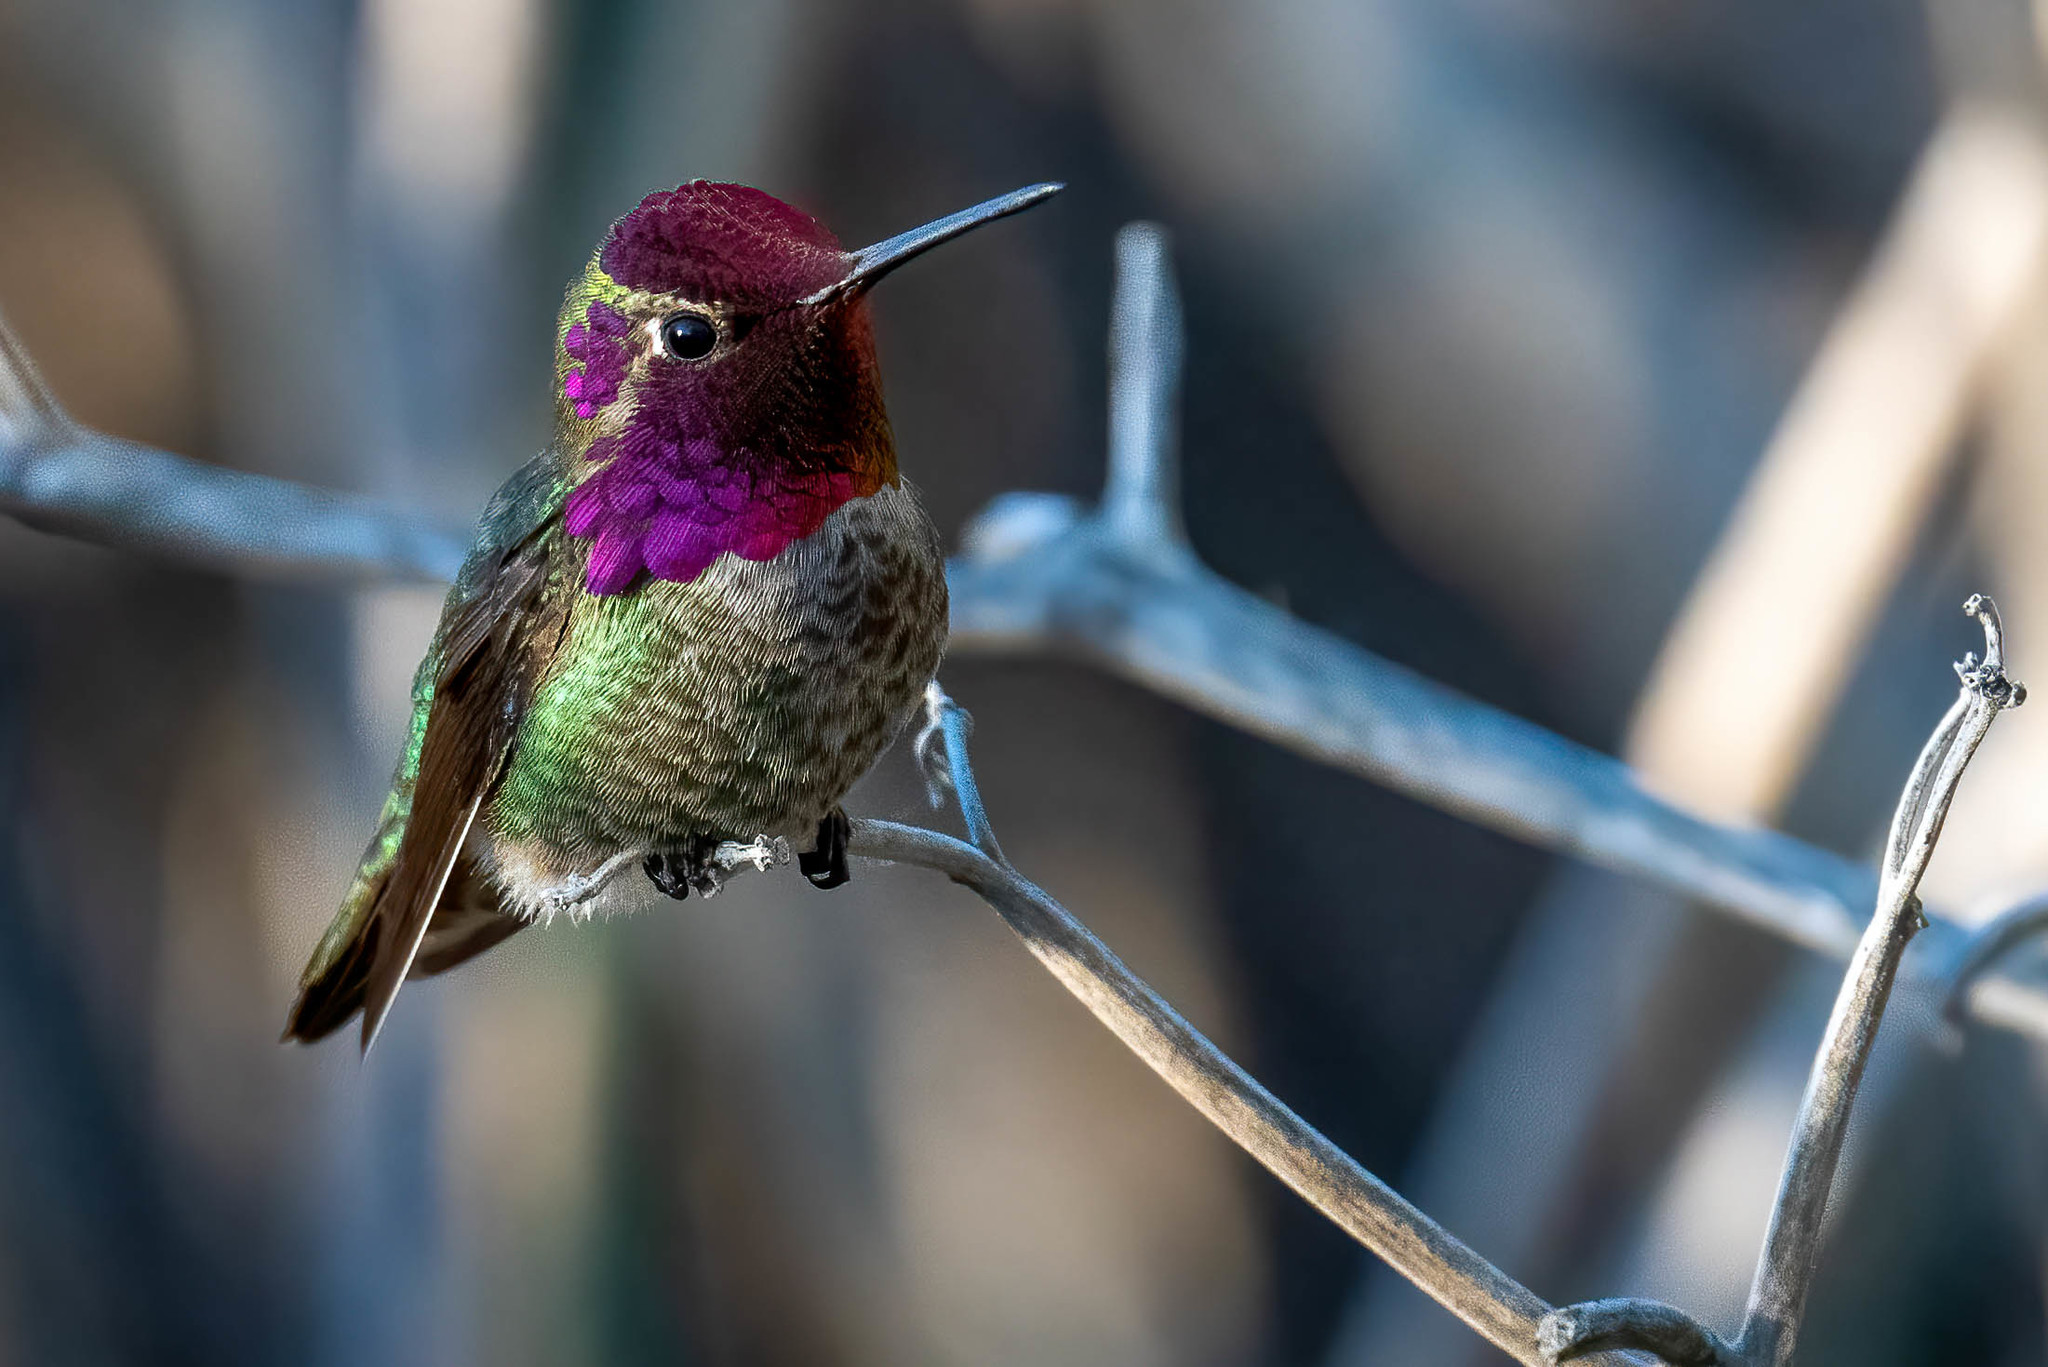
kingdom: Animalia
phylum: Chordata
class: Aves
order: Apodiformes
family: Trochilidae
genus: Calypte
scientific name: Calypte anna
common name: Anna's hummingbird
